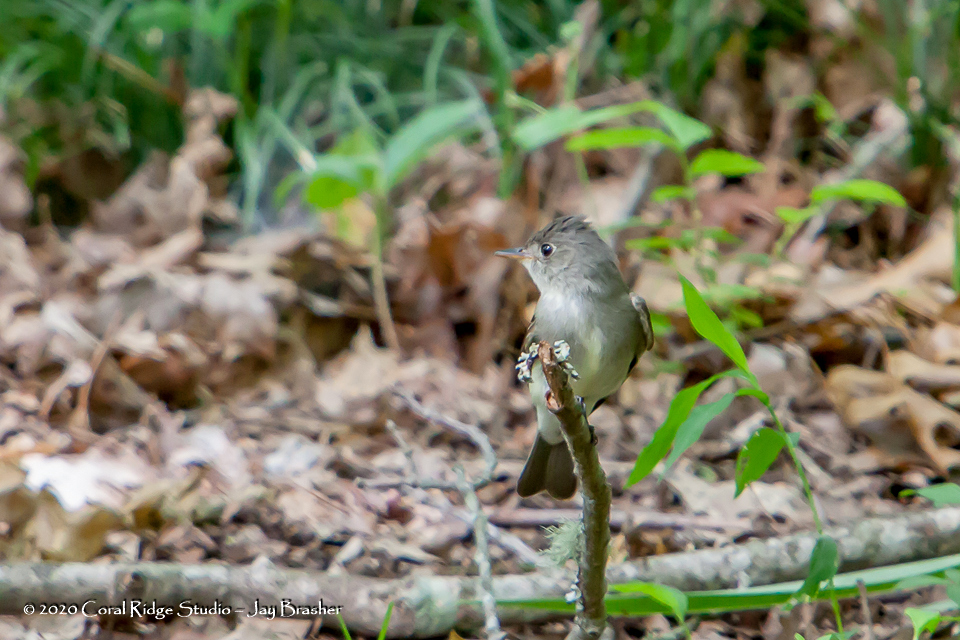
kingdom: Animalia
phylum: Chordata
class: Aves
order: Passeriformes
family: Tyrannidae
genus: Empidonax
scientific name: Empidonax traillii
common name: Willow flycatcher
